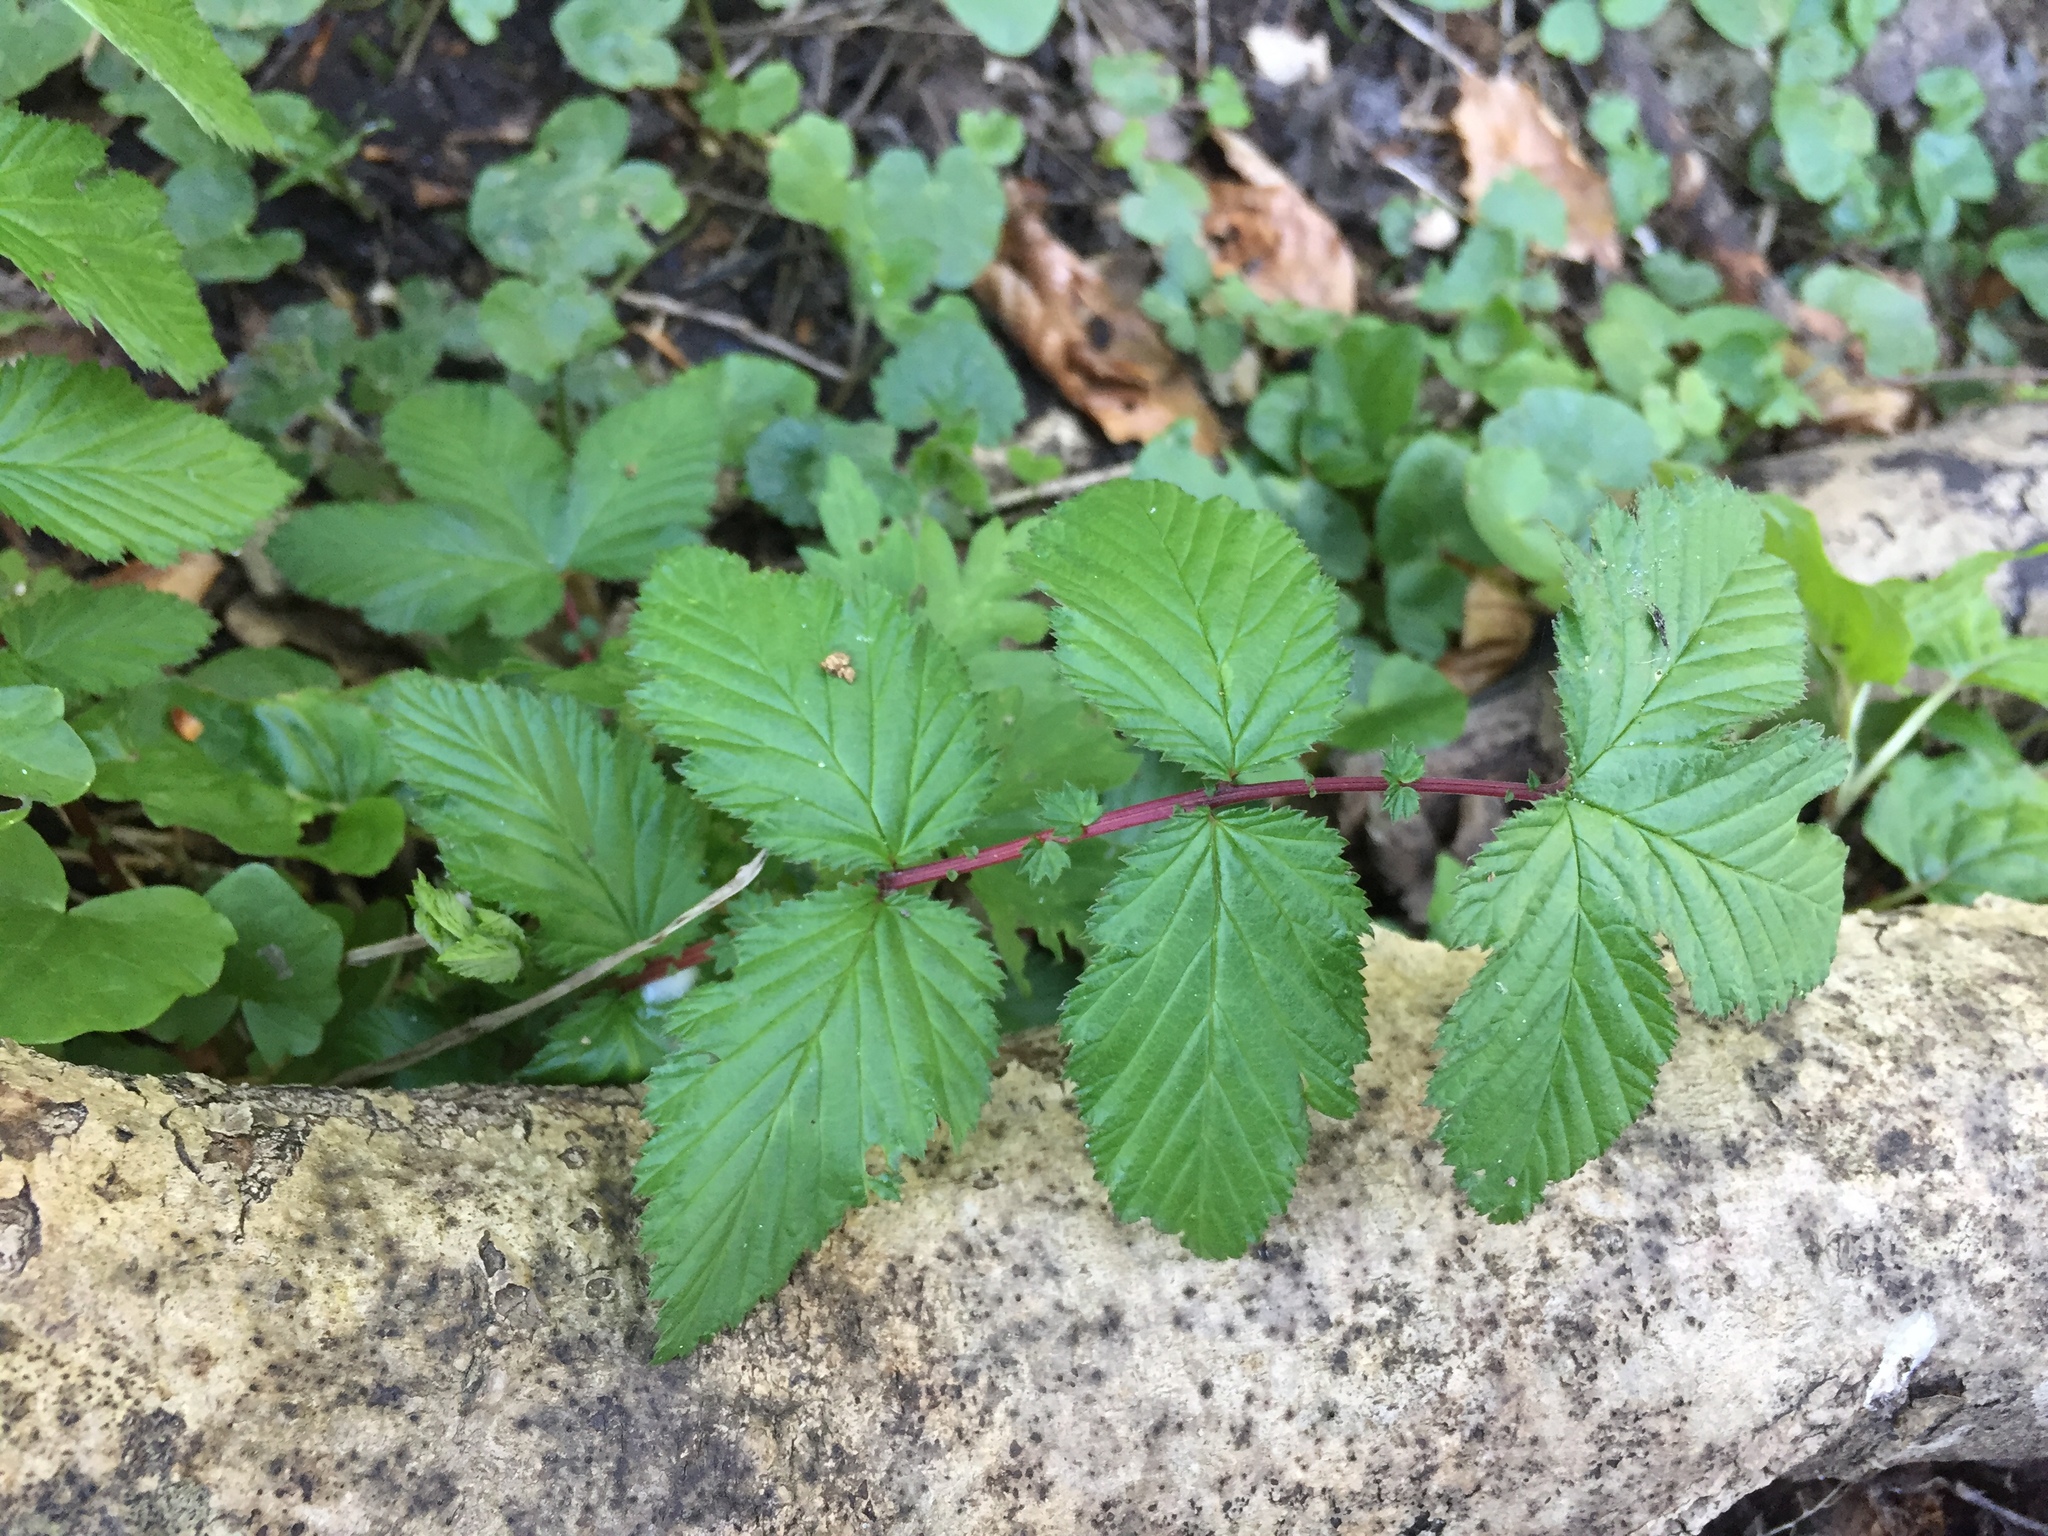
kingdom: Plantae
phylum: Tracheophyta
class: Magnoliopsida
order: Rosales
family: Rosaceae
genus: Filipendula
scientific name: Filipendula ulmaria
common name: Meadowsweet
